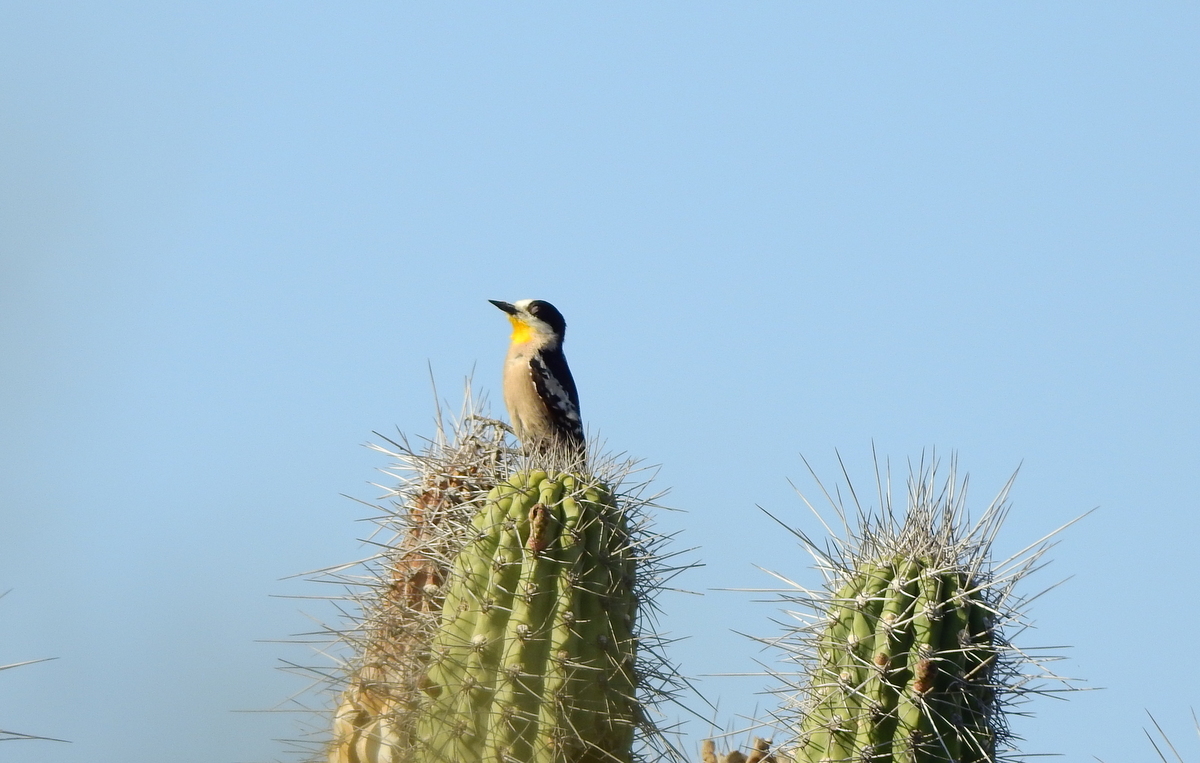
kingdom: Animalia
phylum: Chordata
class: Aves
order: Piciformes
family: Picidae
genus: Melanerpes
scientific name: Melanerpes cactorum
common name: White-fronted woodpecker
